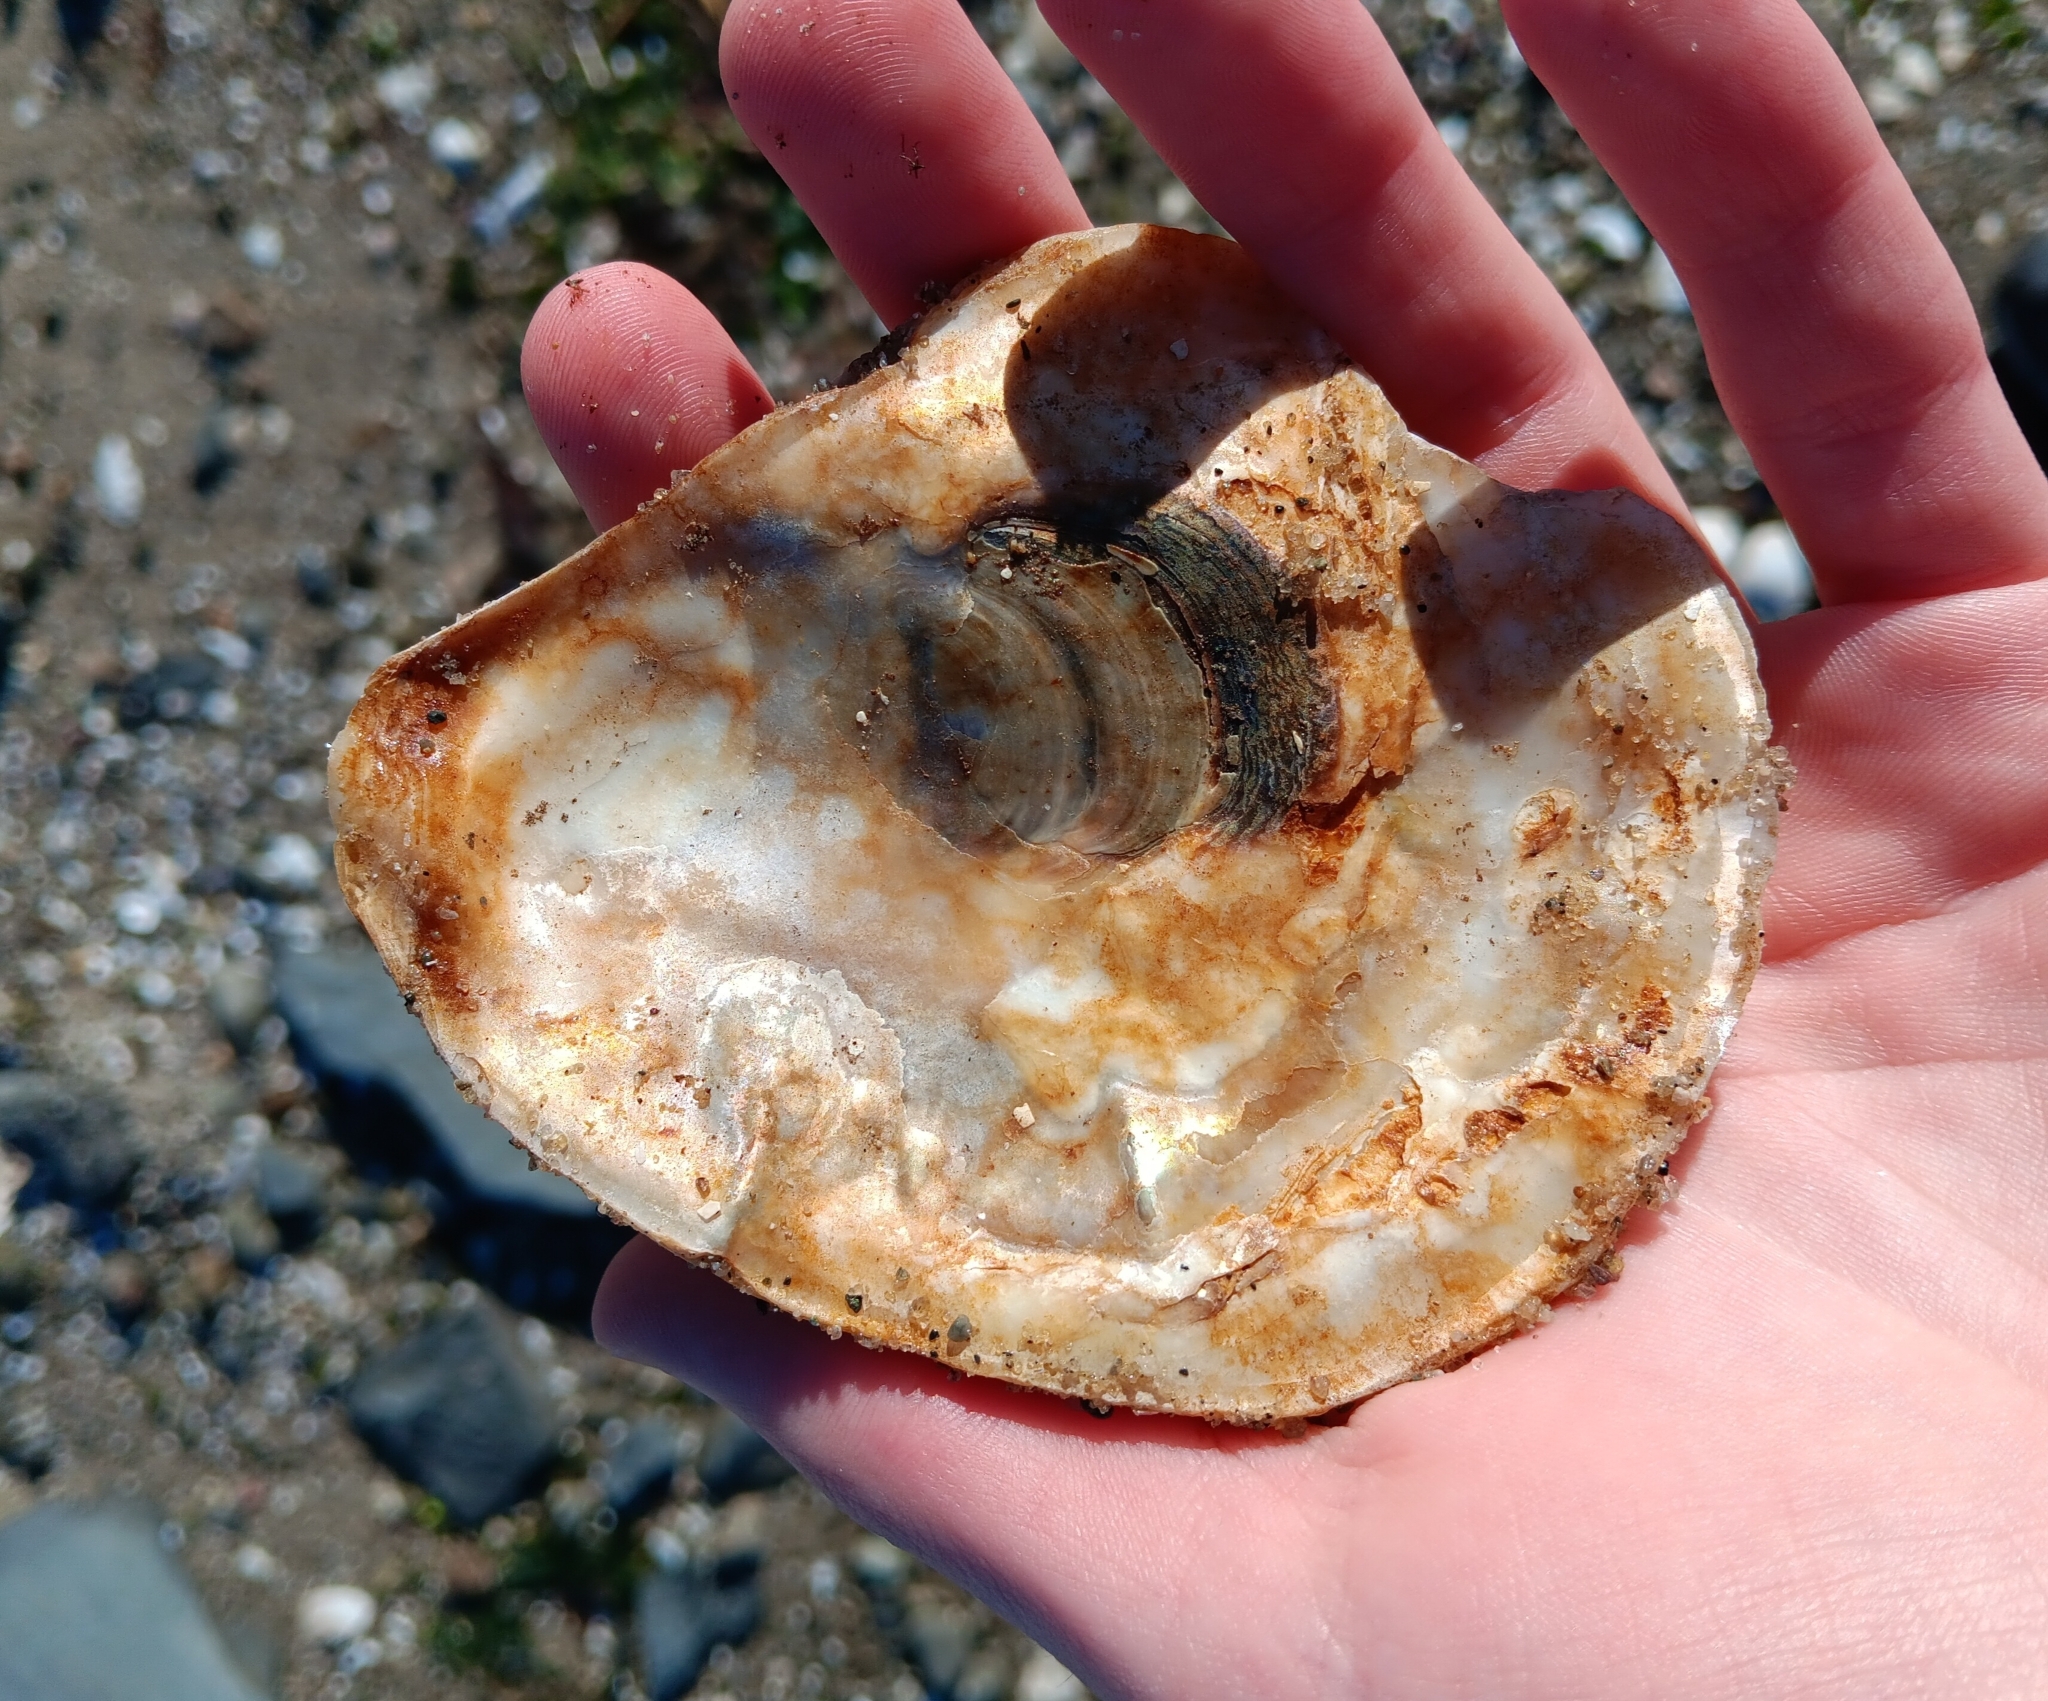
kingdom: Animalia
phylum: Mollusca
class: Bivalvia
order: Ostreida
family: Ostreidae
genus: Crassostrea
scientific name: Crassostrea virginica
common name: American oyster
